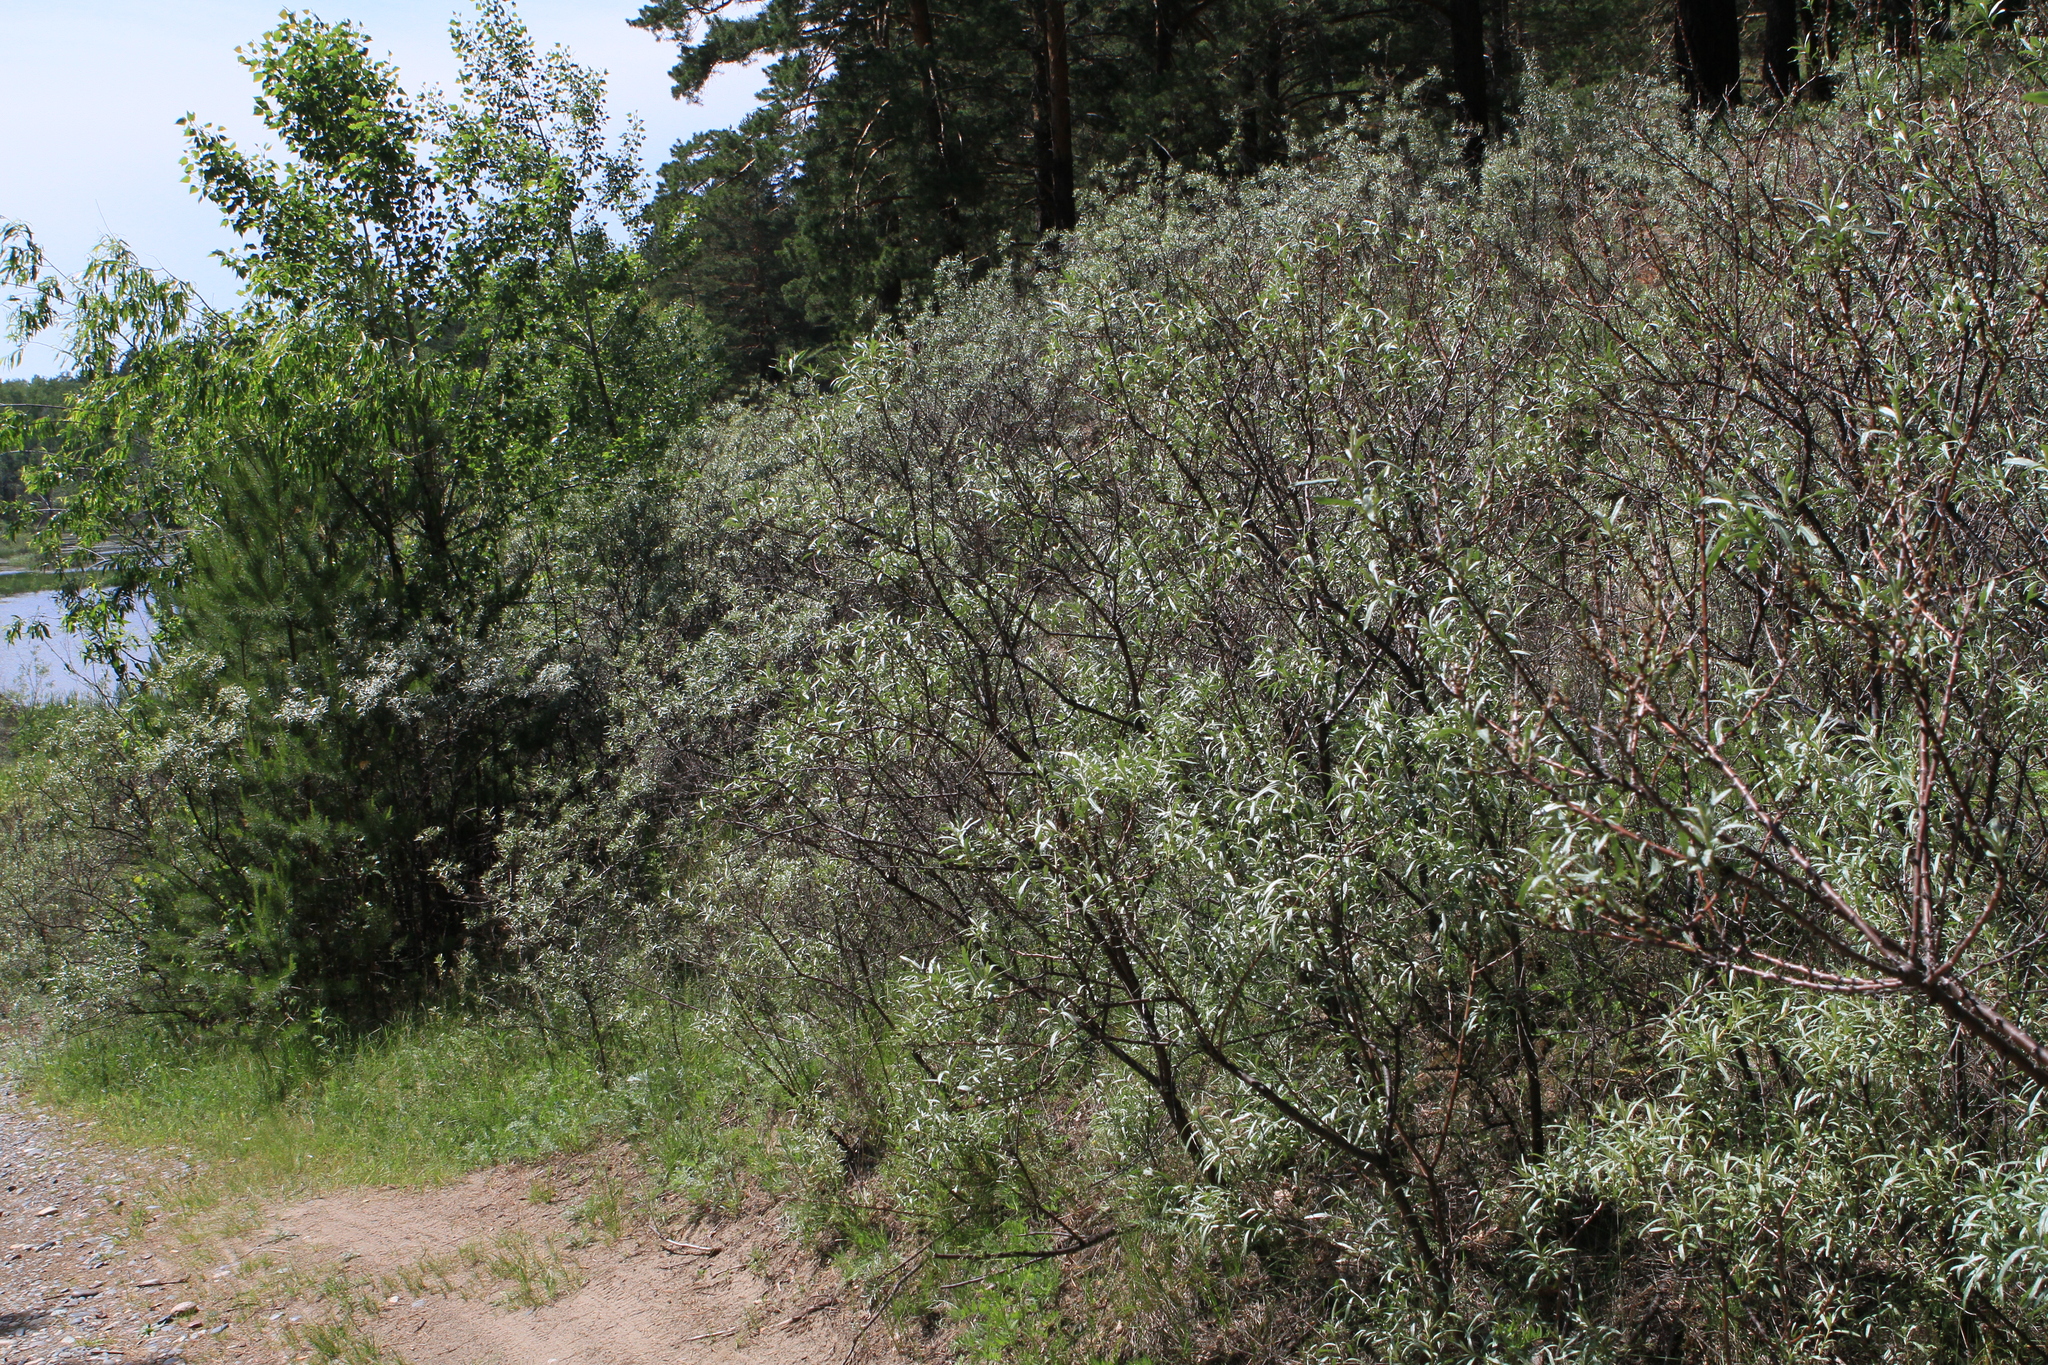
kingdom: Plantae
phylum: Tracheophyta
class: Magnoliopsida
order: Rosales
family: Elaeagnaceae
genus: Hippophae
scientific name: Hippophae rhamnoides
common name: Sea-buckthorn
